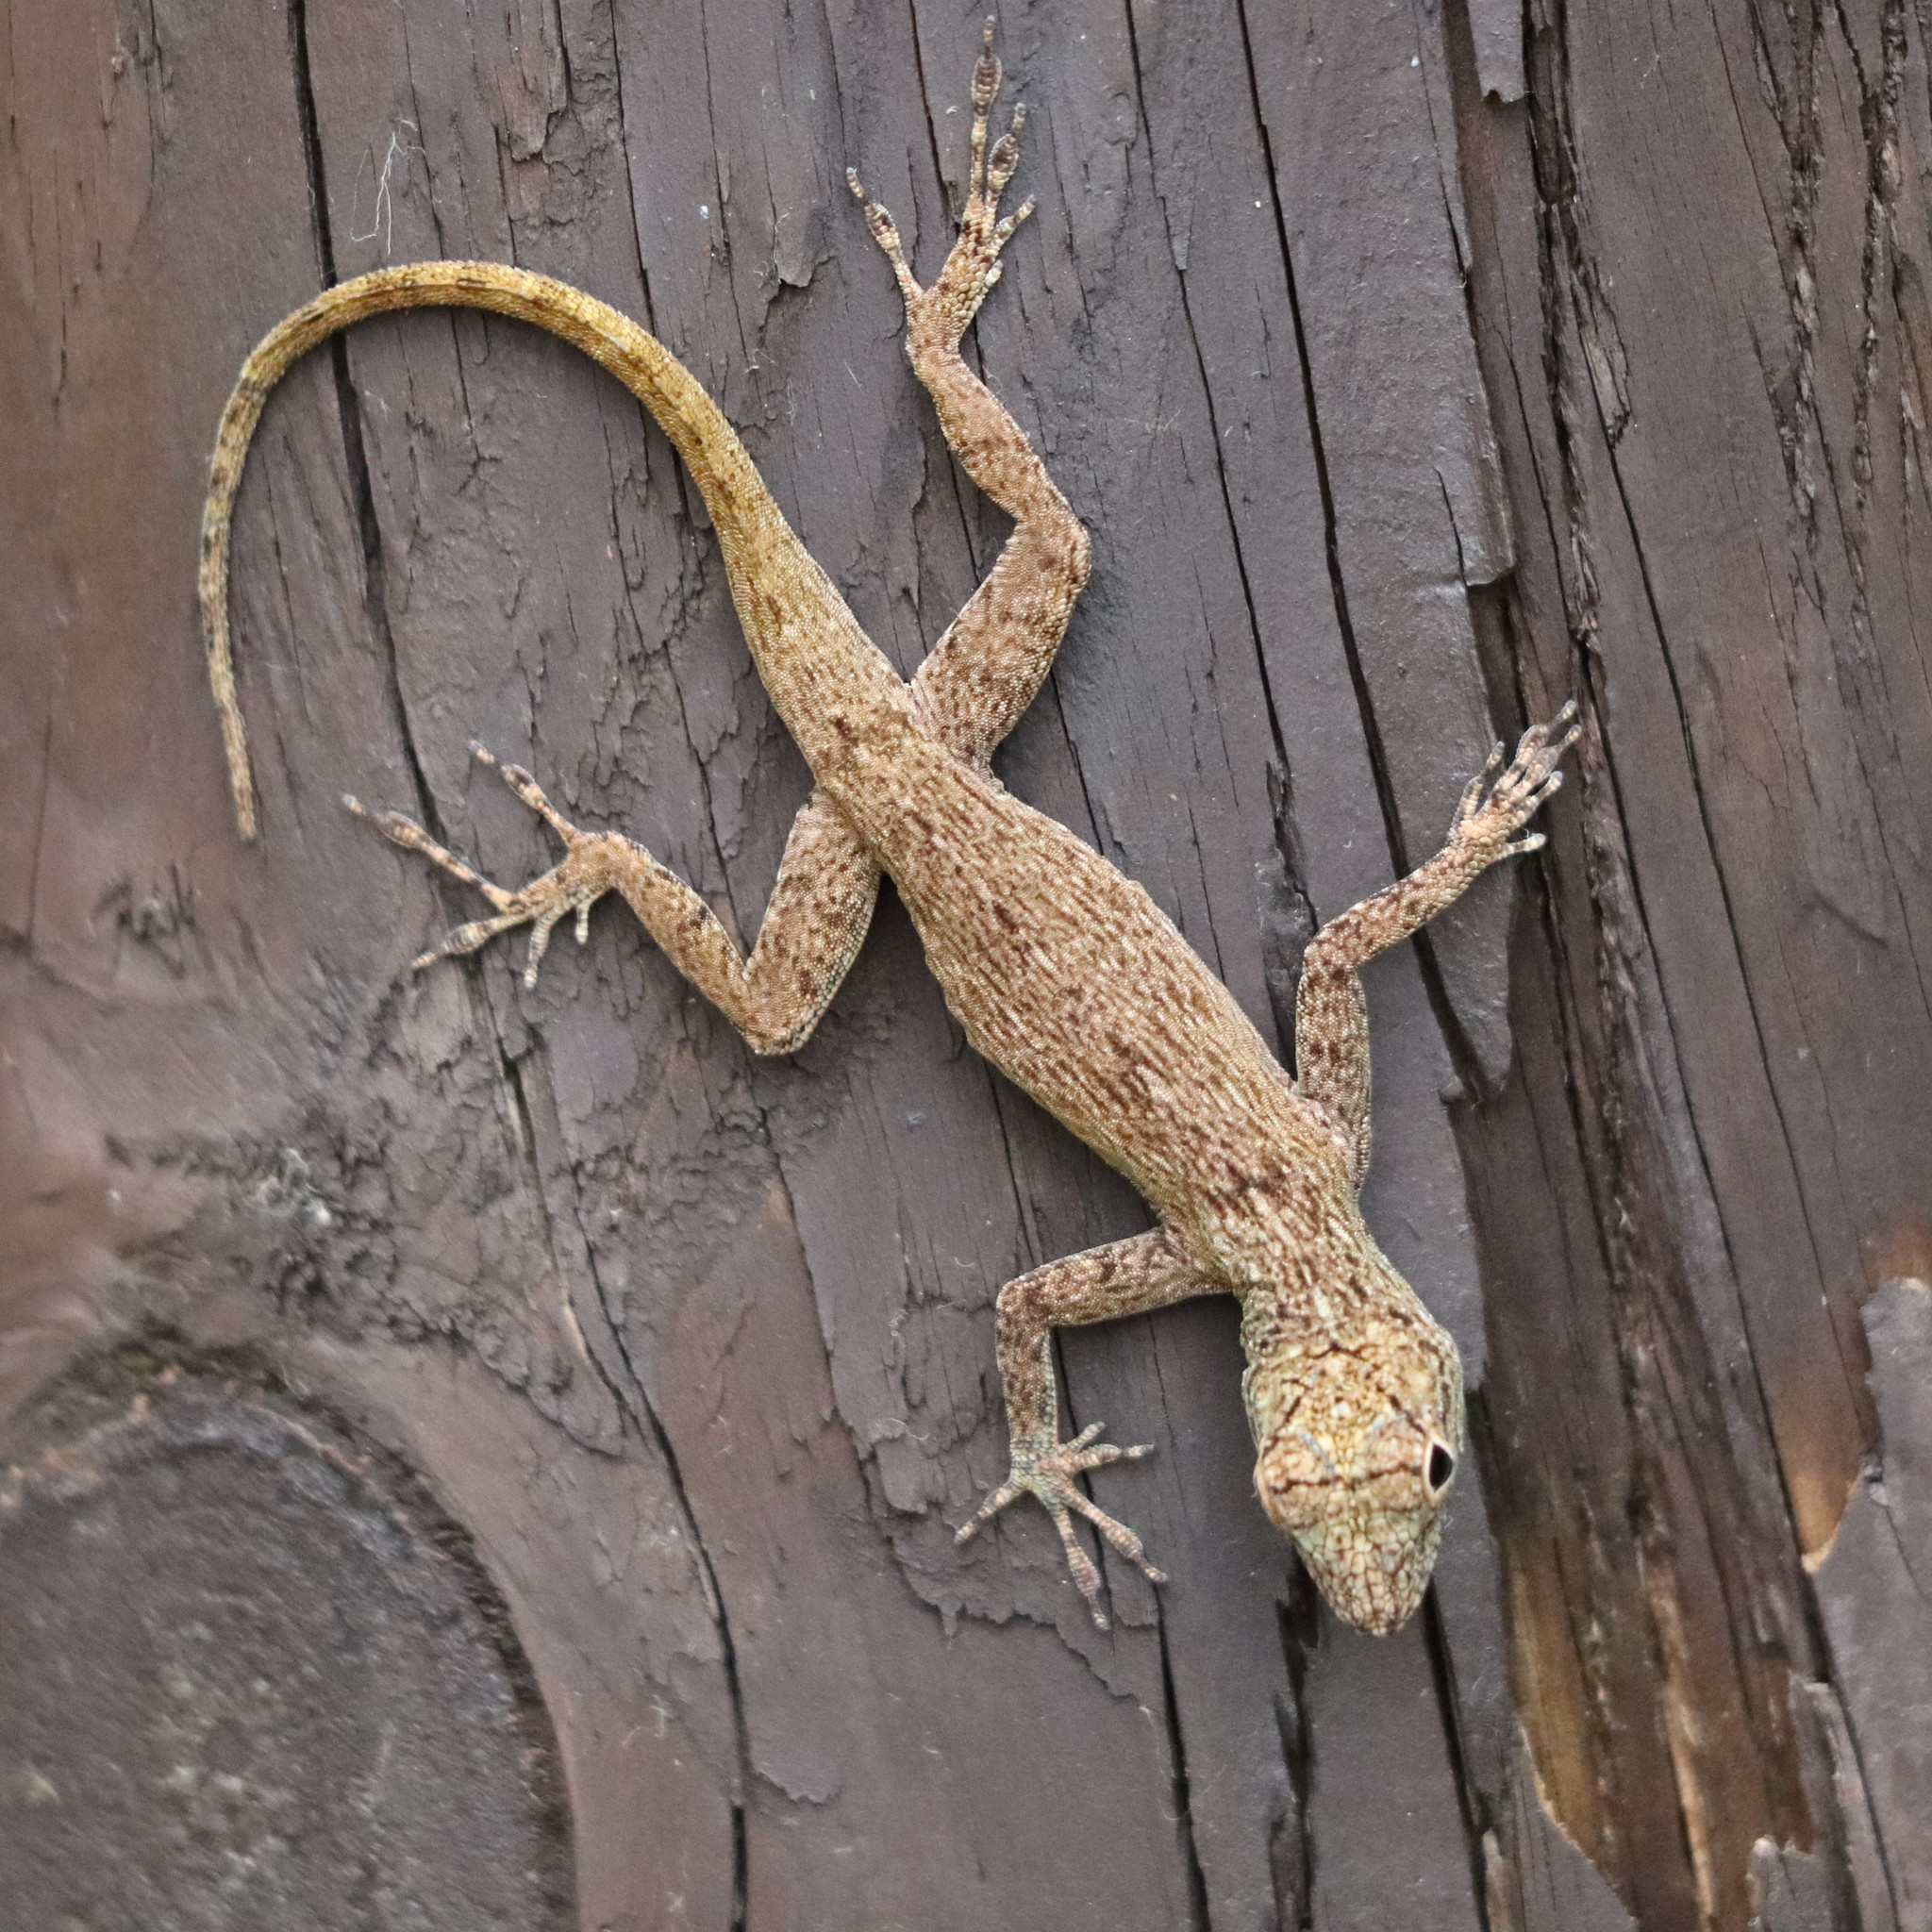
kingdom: Animalia
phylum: Chordata
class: Squamata
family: Dactyloidae
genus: Anolis
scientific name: Anolis distichus
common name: Bark anole
